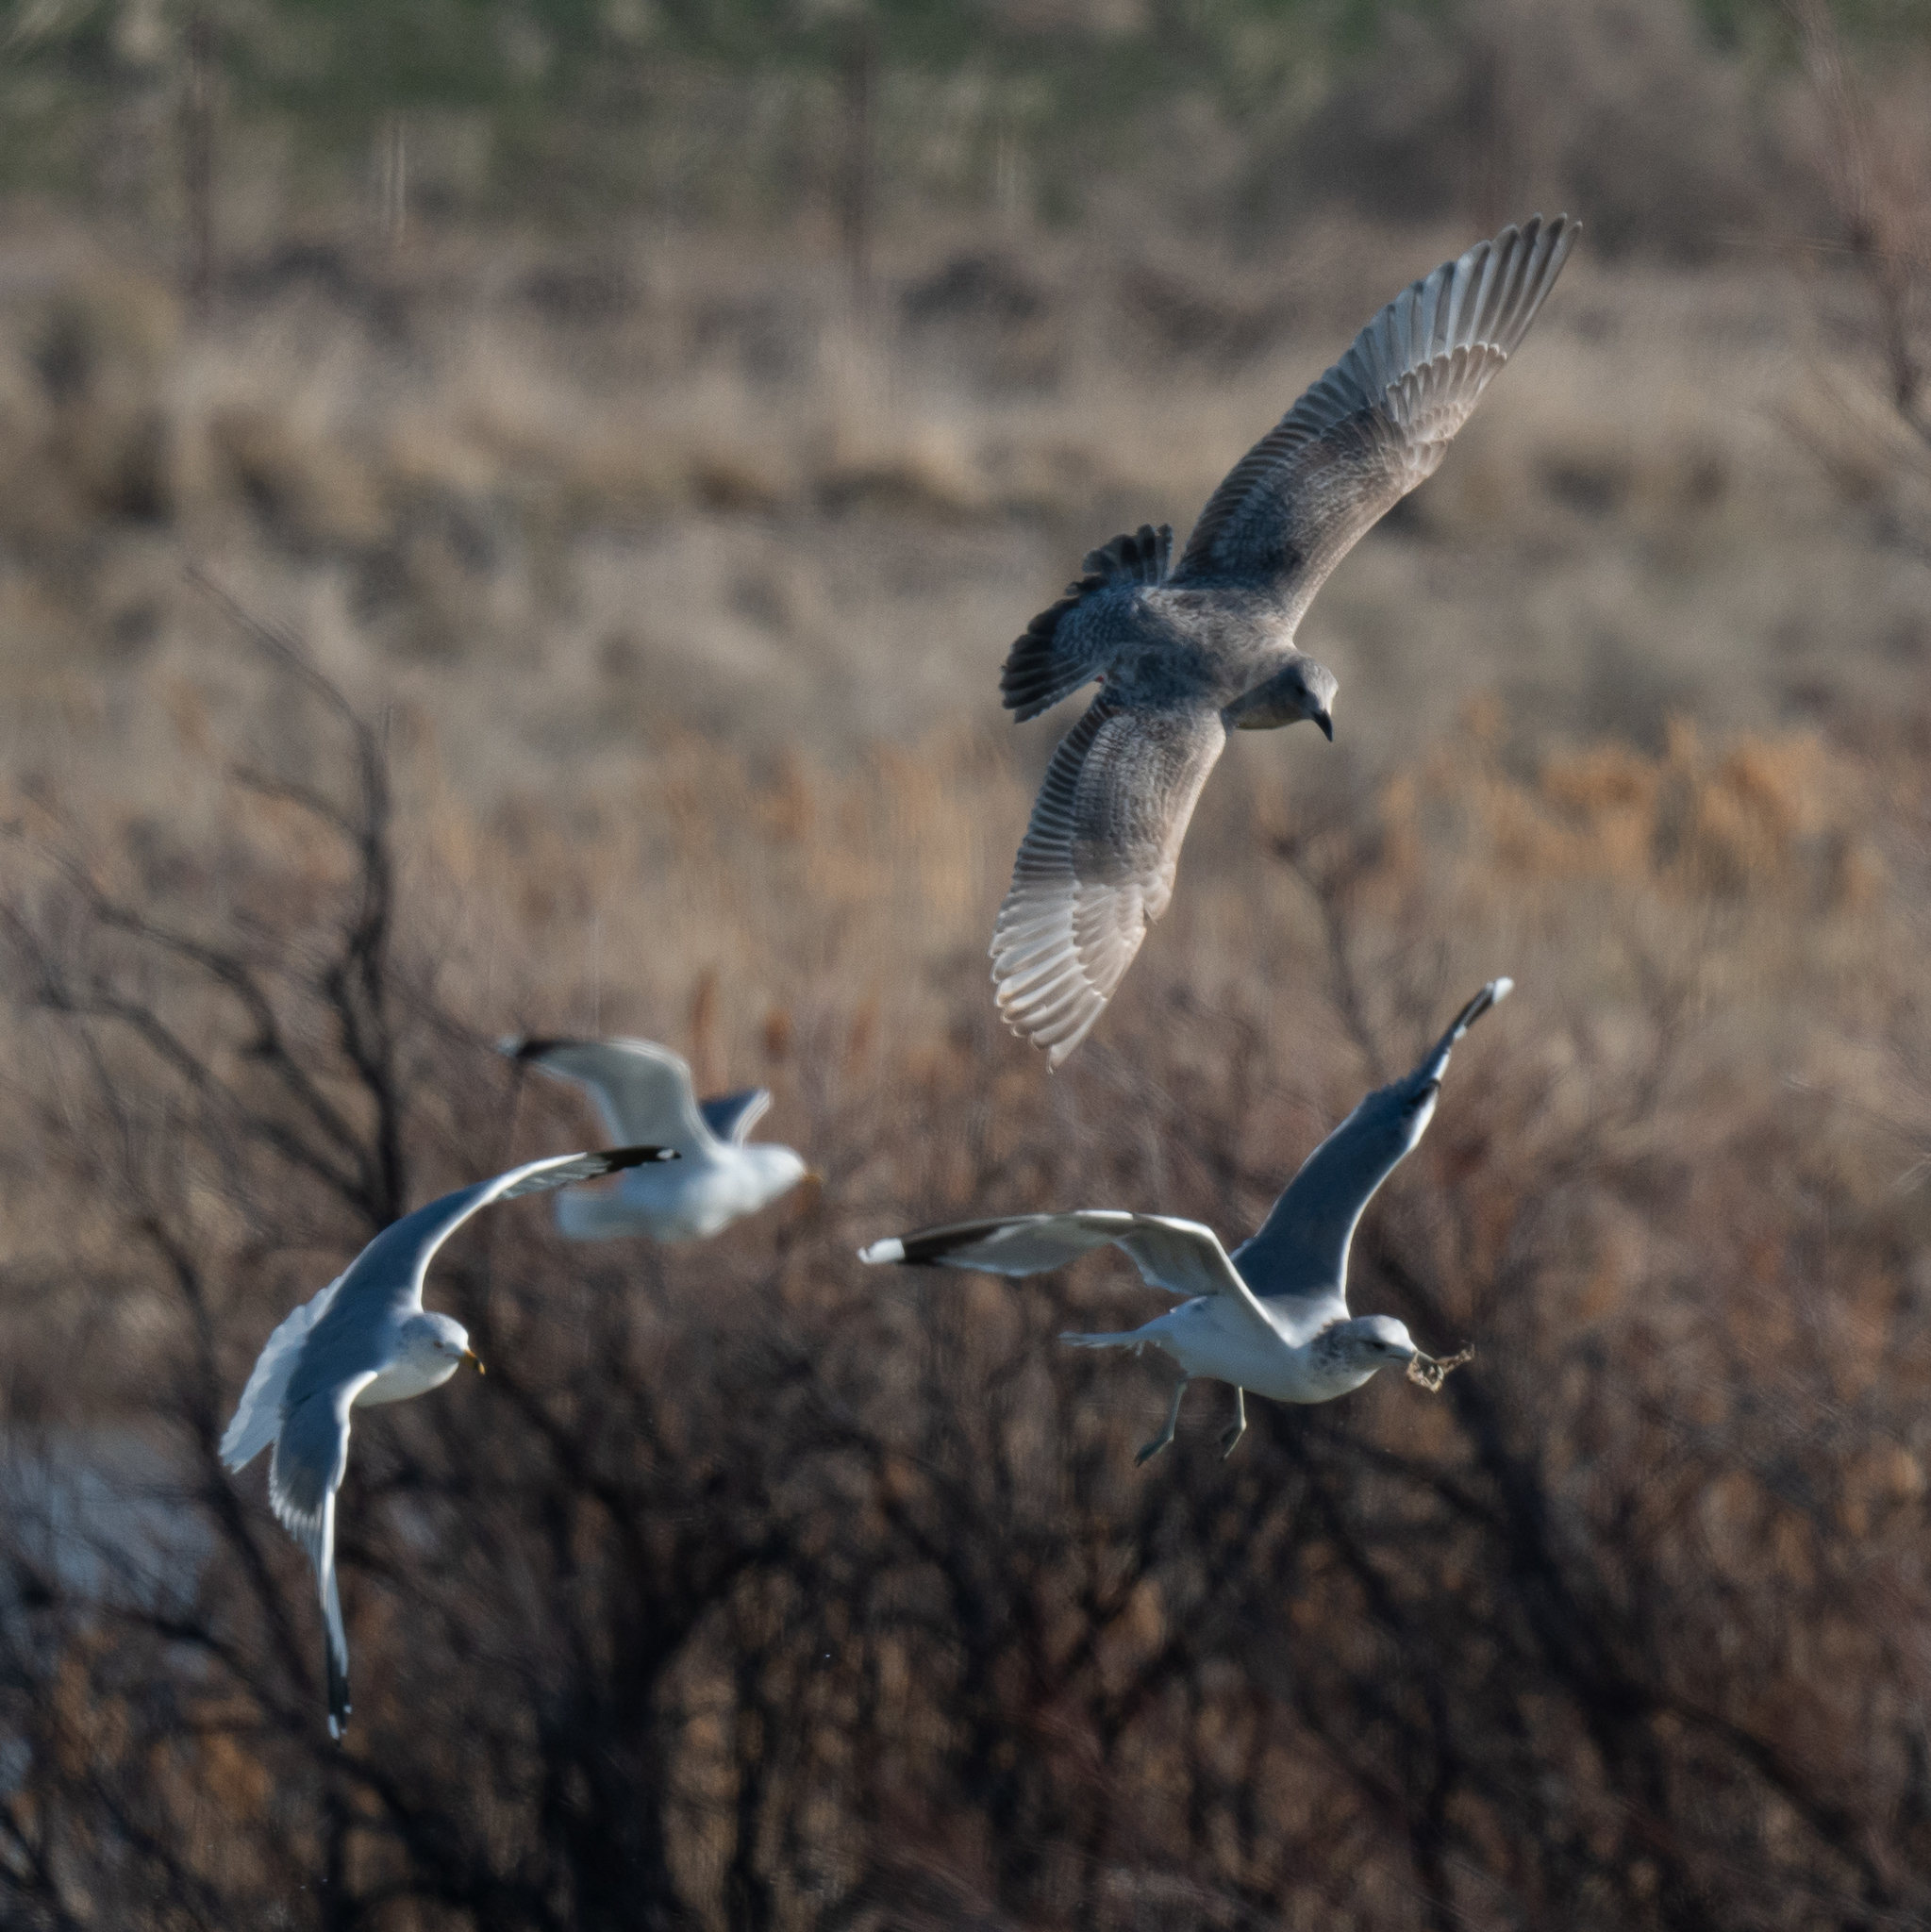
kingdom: Animalia
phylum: Chordata
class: Aves
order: Charadriiformes
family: Laridae
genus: Larus
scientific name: Larus glaucescens
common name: Glaucous-winged gull
